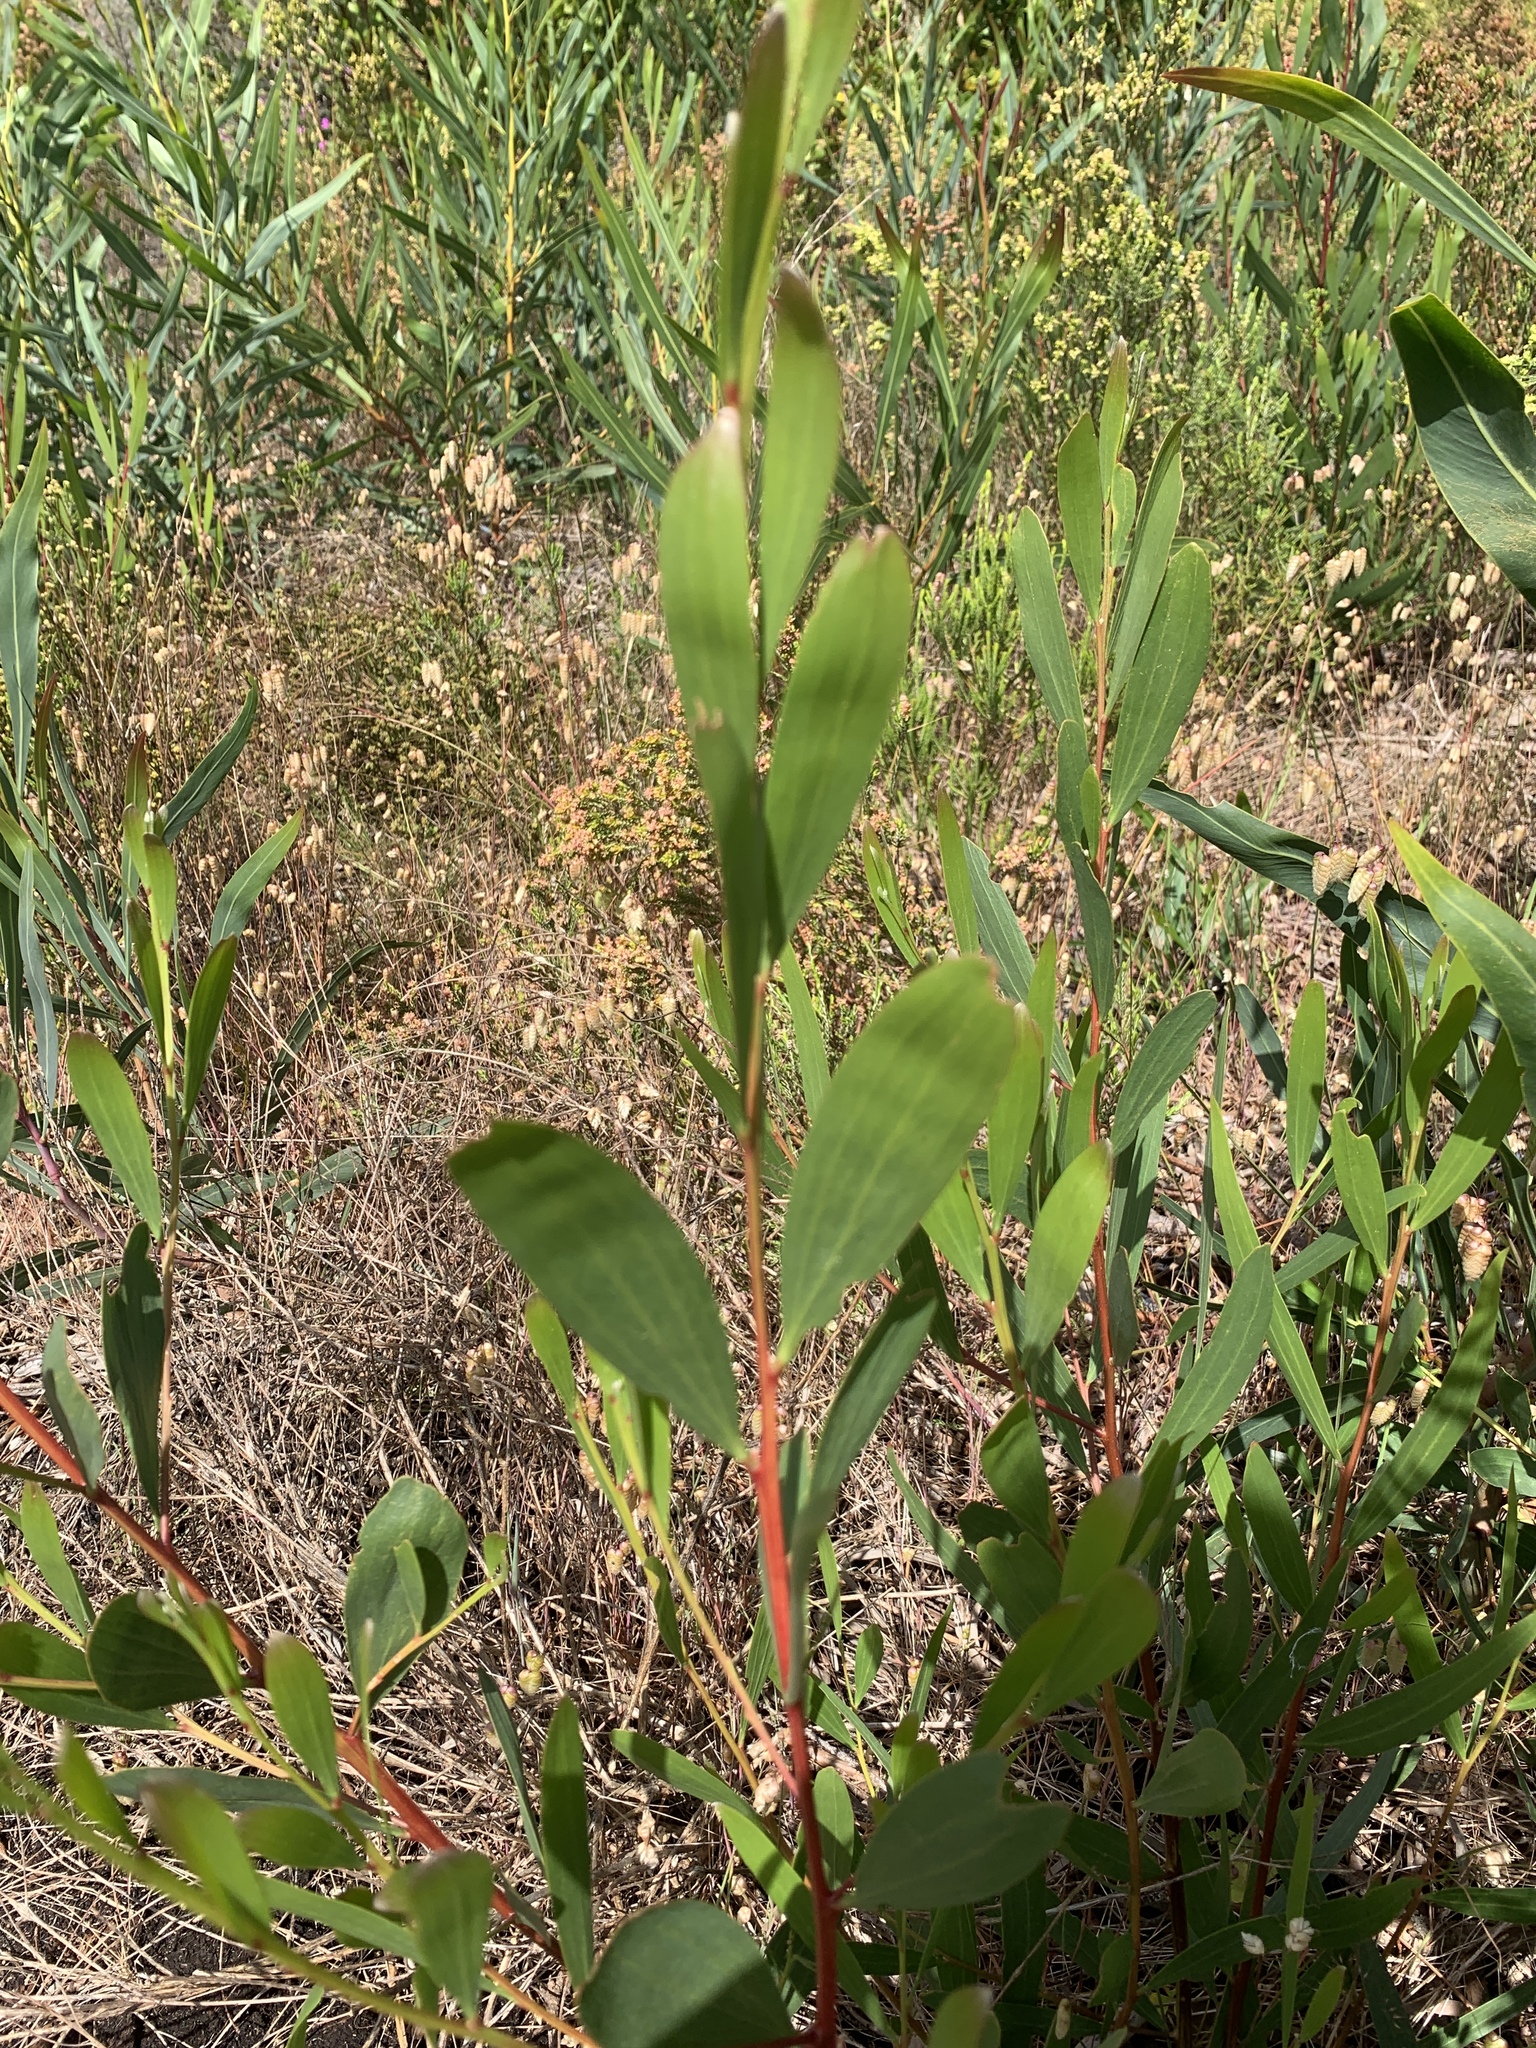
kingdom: Plantae
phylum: Tracheophyta
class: Magnoliopsida
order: Fabales
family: Fabaceae
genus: Acacia
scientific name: Acacia longifolia
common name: Sydney golden wattle
